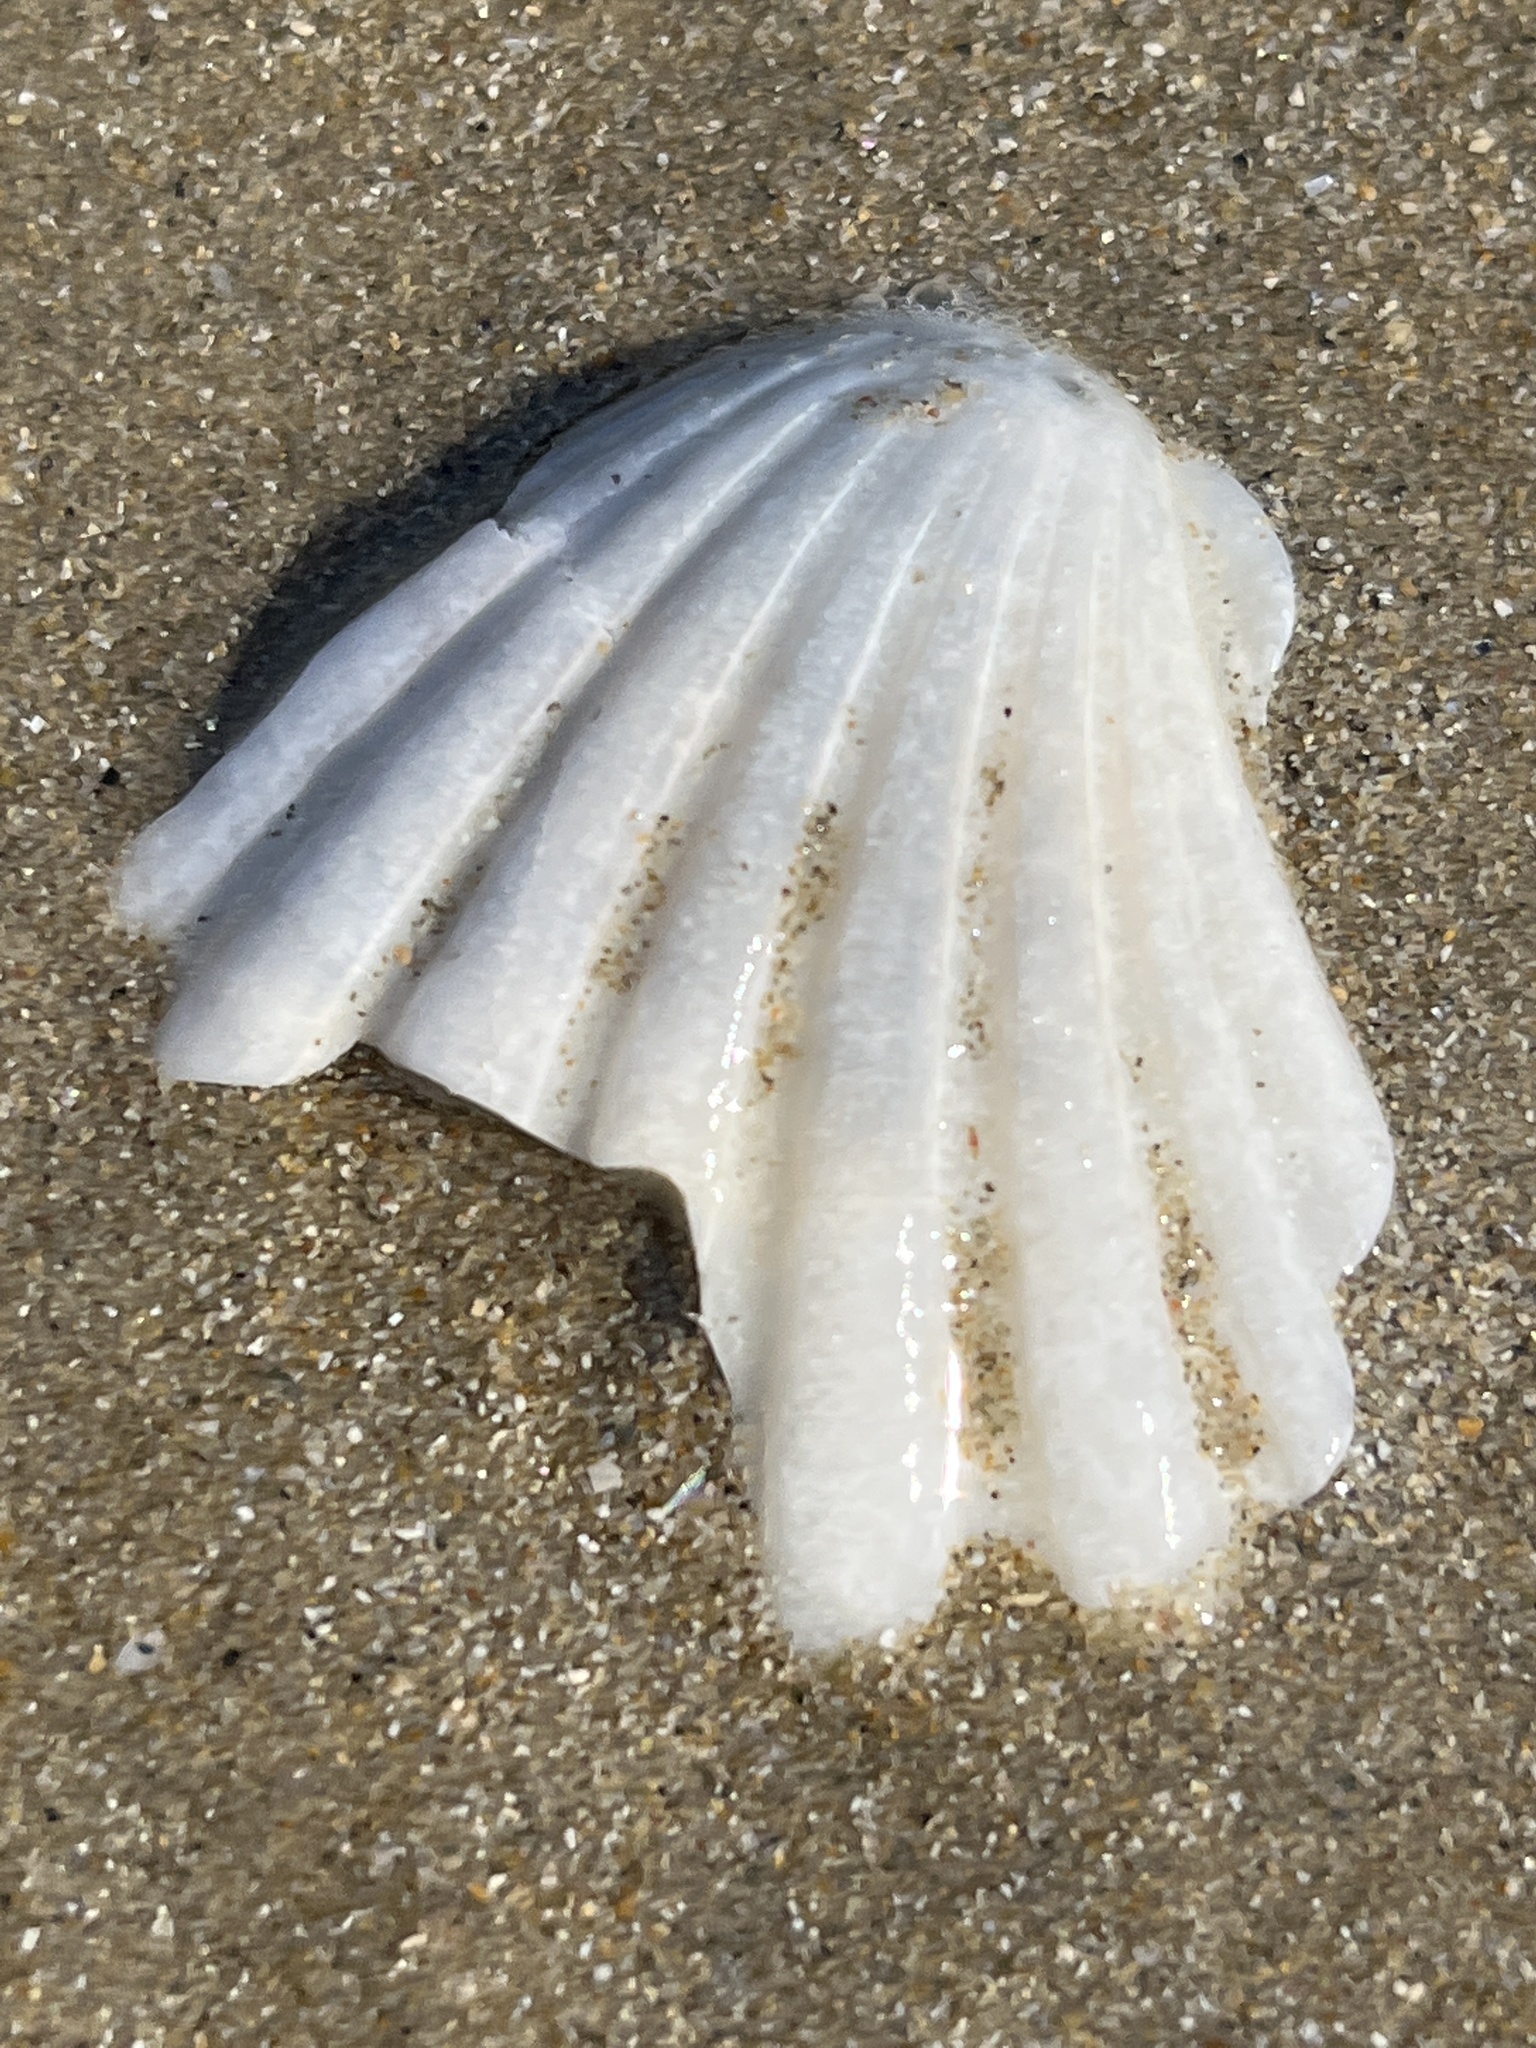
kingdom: Animalia
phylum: Mollusca
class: Bivalvia
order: Pectinida
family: Pectinidae
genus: Pecten
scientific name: Pecten albicans
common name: Japanese baking scallop
